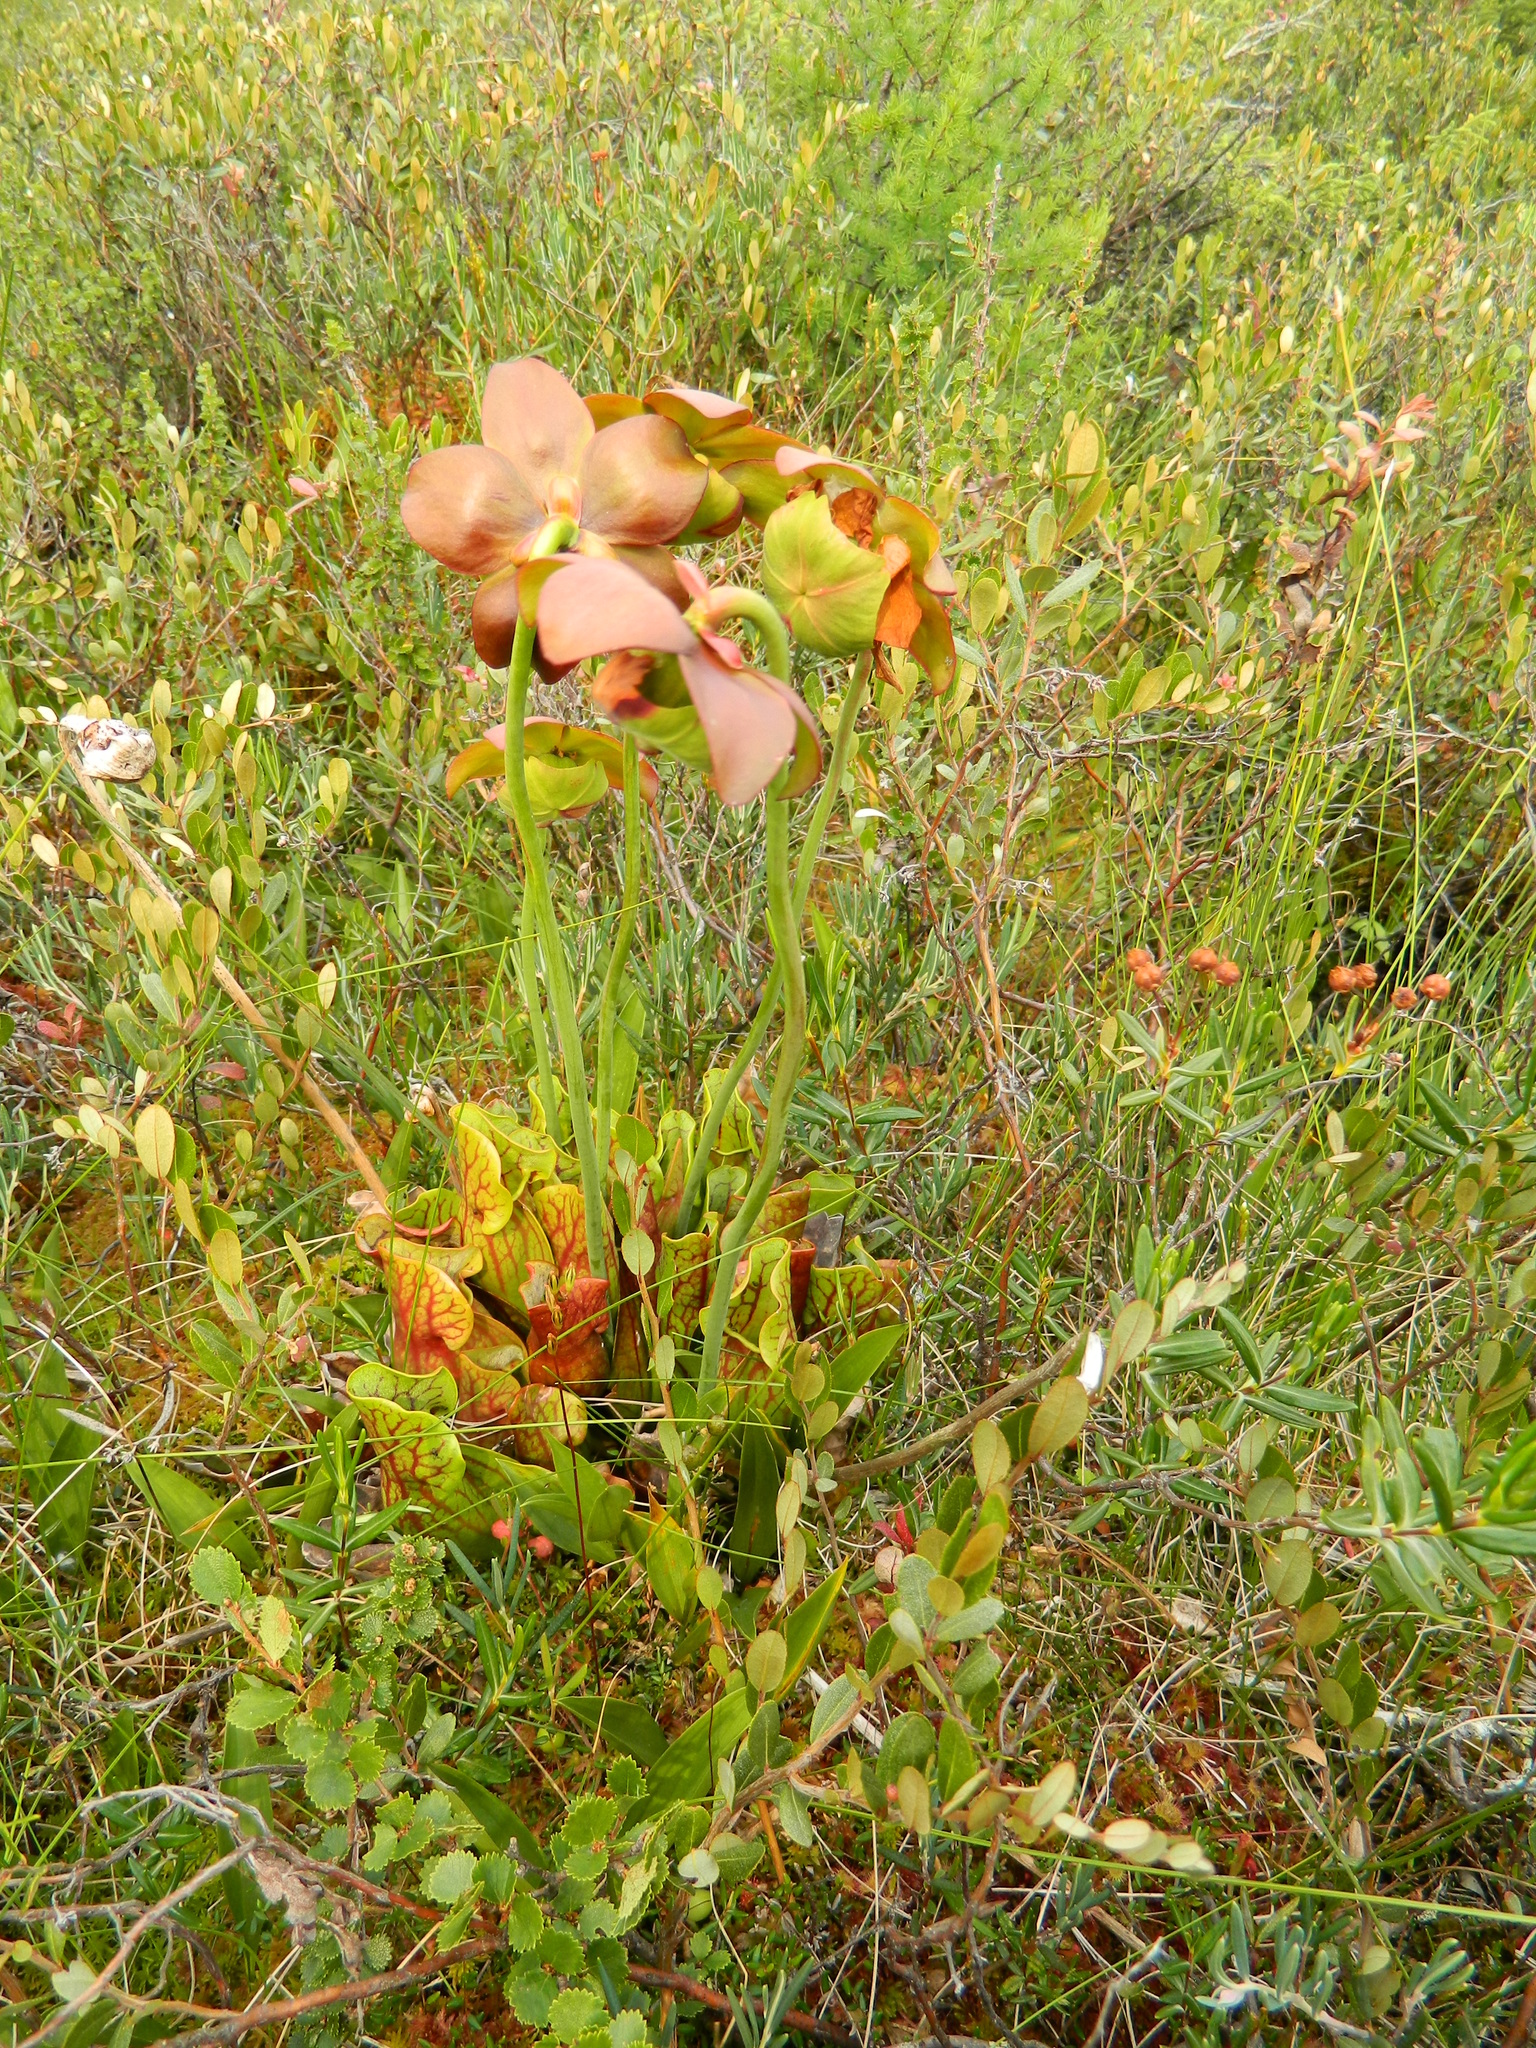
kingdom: Plantae
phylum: Tracheophyta
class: Magnoliopsida
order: Ericales
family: Sarraceniaceae
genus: Sarracenia
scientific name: Sarracenia purpurea
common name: Pitcherplant
